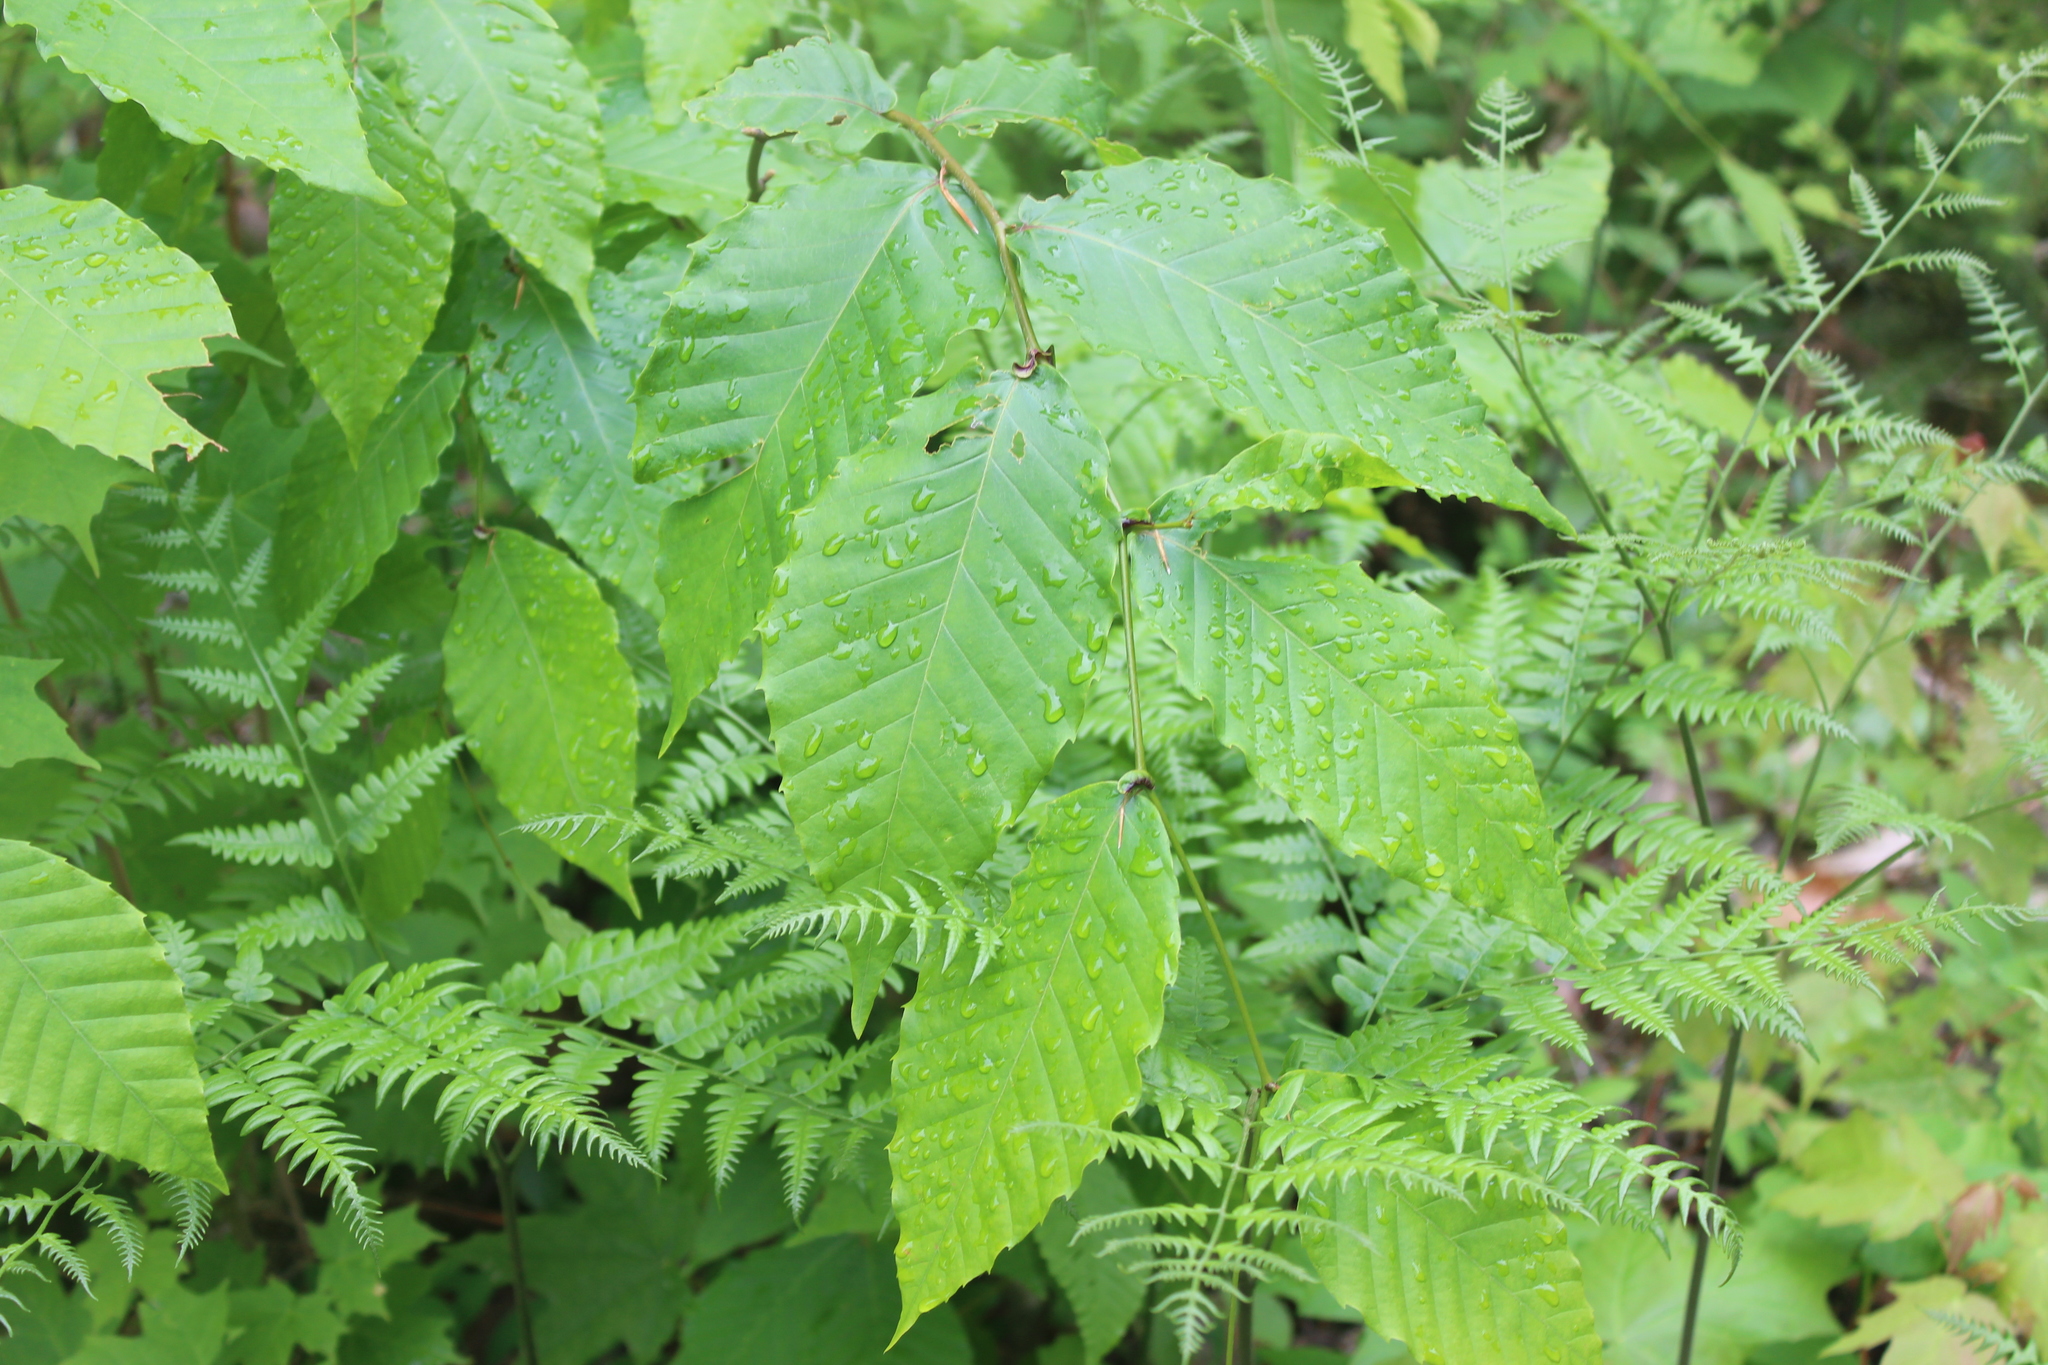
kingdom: Plantae
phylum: Tracheophyta
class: Magnoliopsida
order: Fagales
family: Fagaceae
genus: Fagus
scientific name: Fagus grandifolia
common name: American beech
